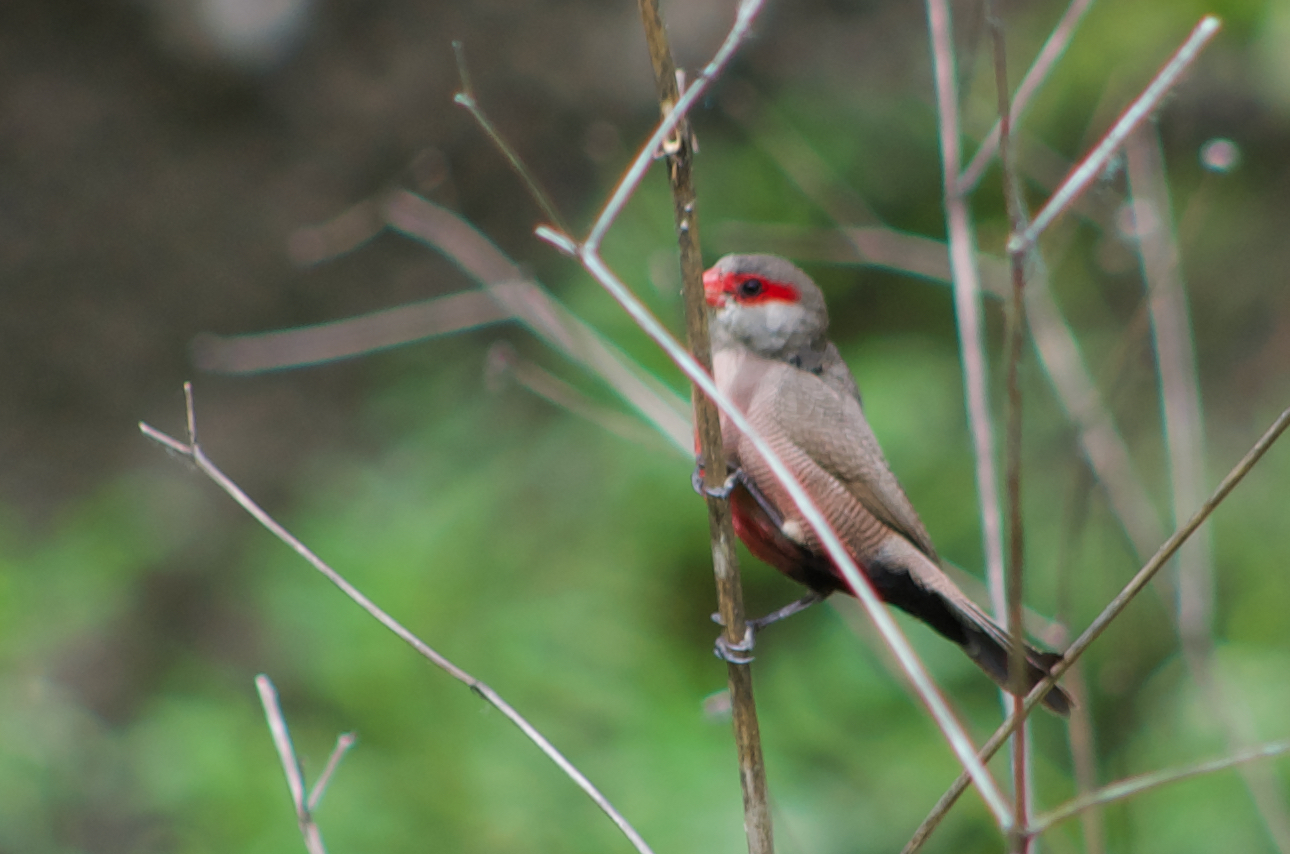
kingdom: Animalia
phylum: Chordata
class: Aves
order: Passeriformes
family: Estrildidae
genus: Estrilda
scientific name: Estrilda astrild
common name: Common waxbill
